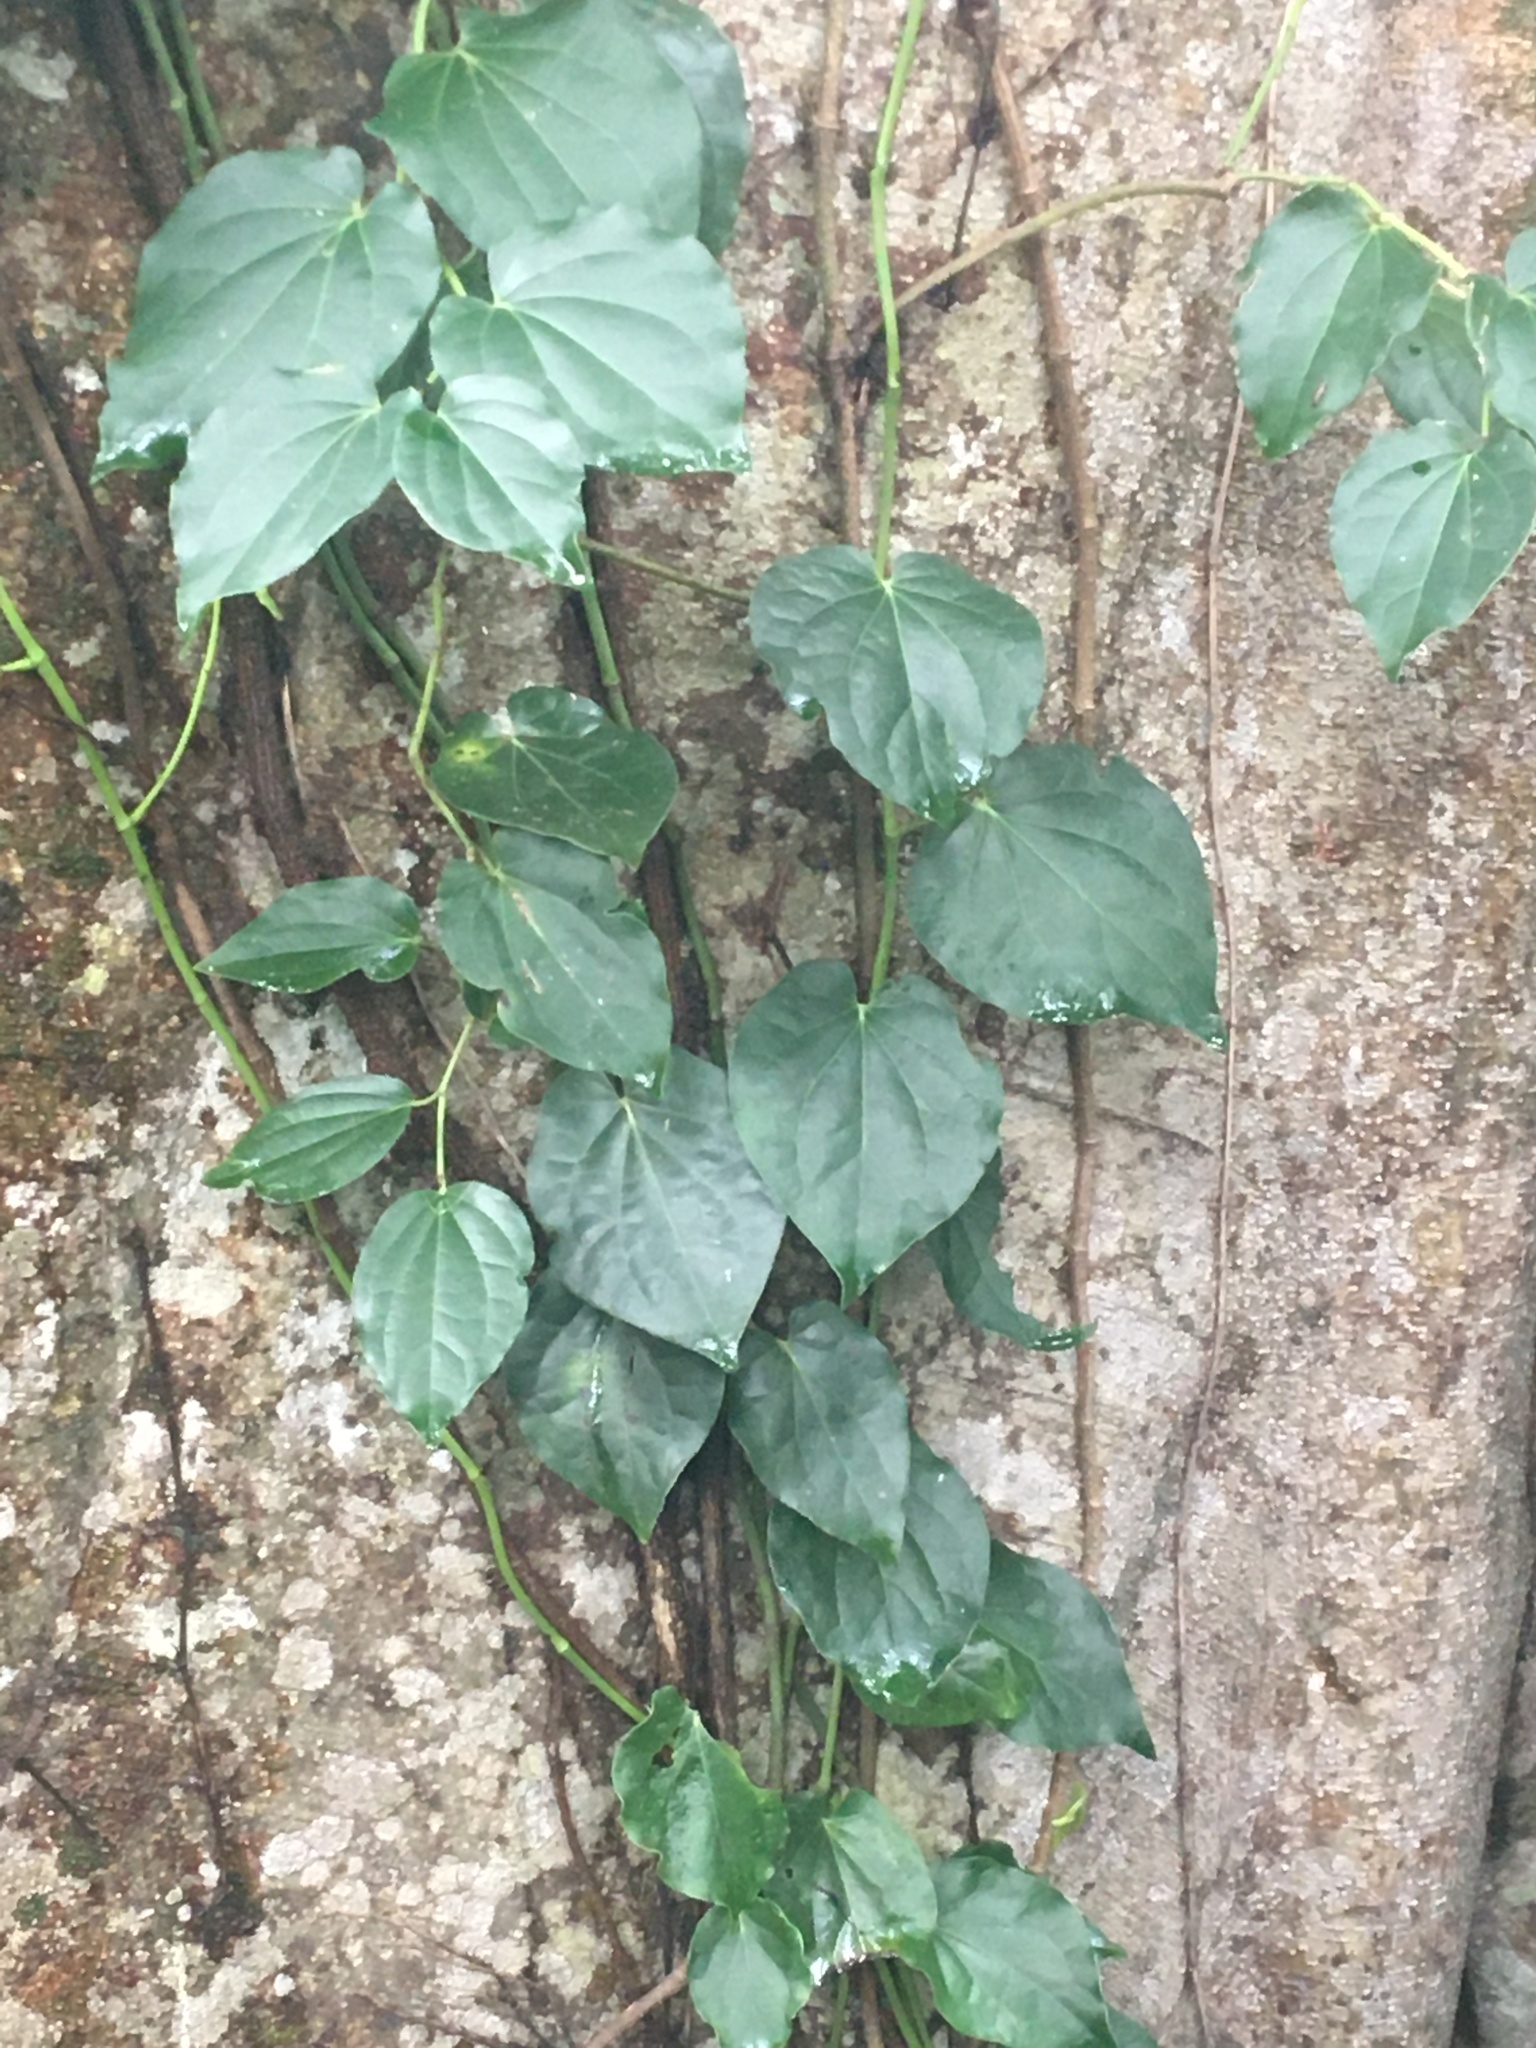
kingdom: Plantae
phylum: Tracheophyta
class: Magnoliopsida
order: Piperales
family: Piperaceae
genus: Piper
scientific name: Piper hederaceum
